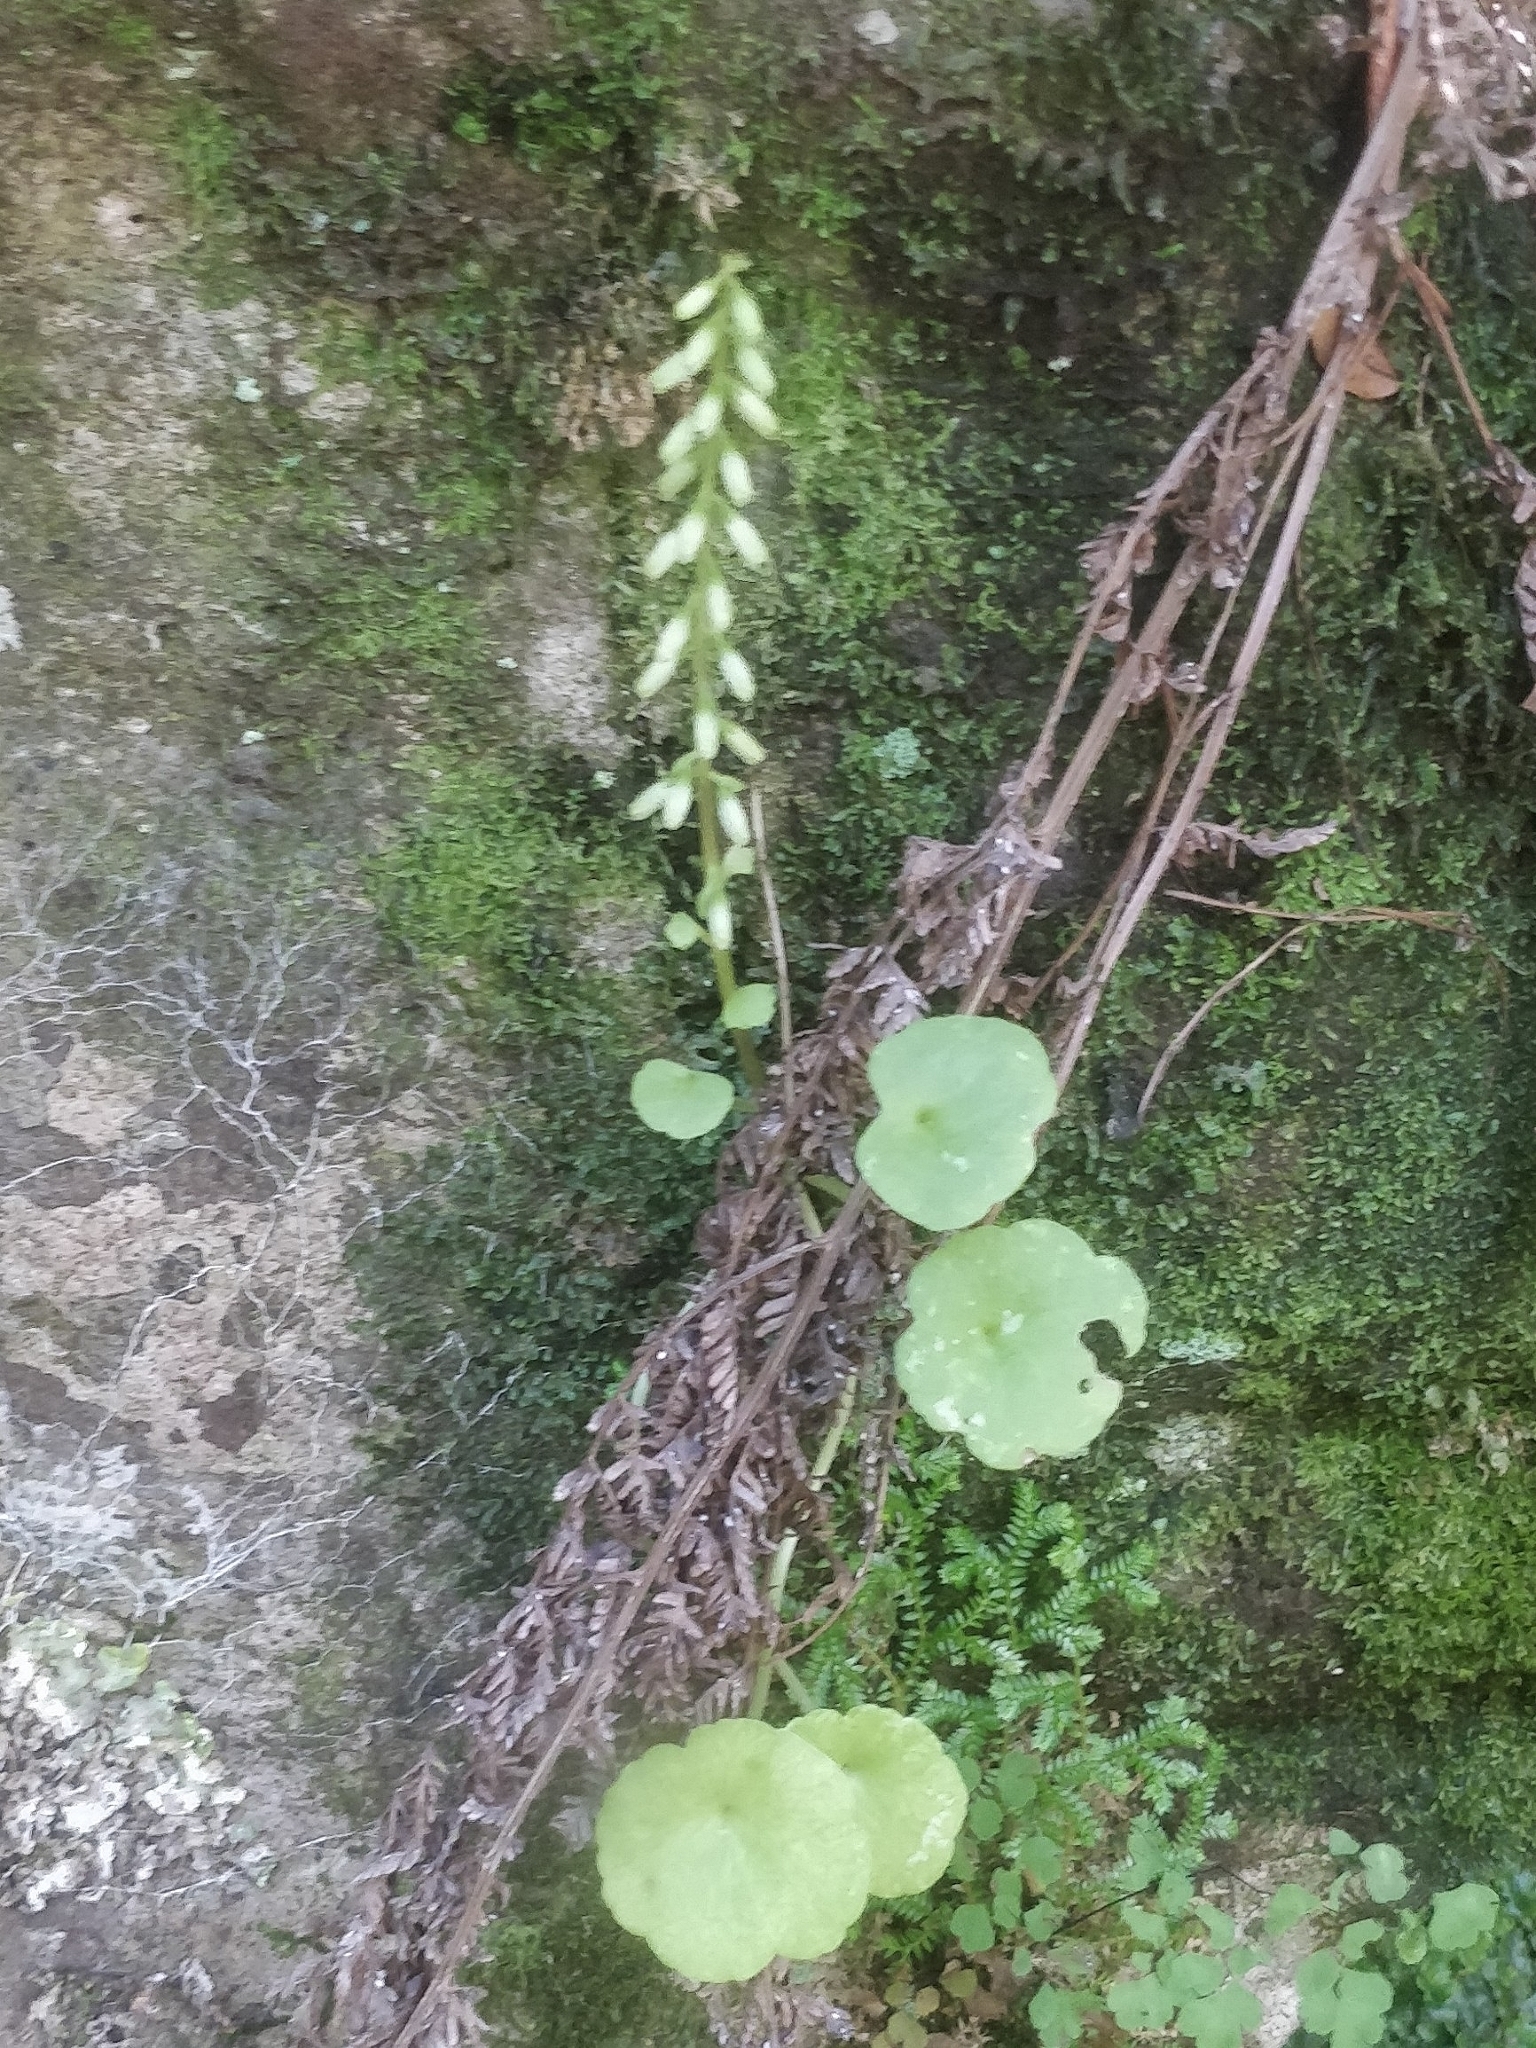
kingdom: Plantae
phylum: Tracheophyta
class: Magnoliopsida
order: Saxifragales
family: Crassulaceae
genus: Umbilicus
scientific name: Umbilicus rupestris
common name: Navelwort
